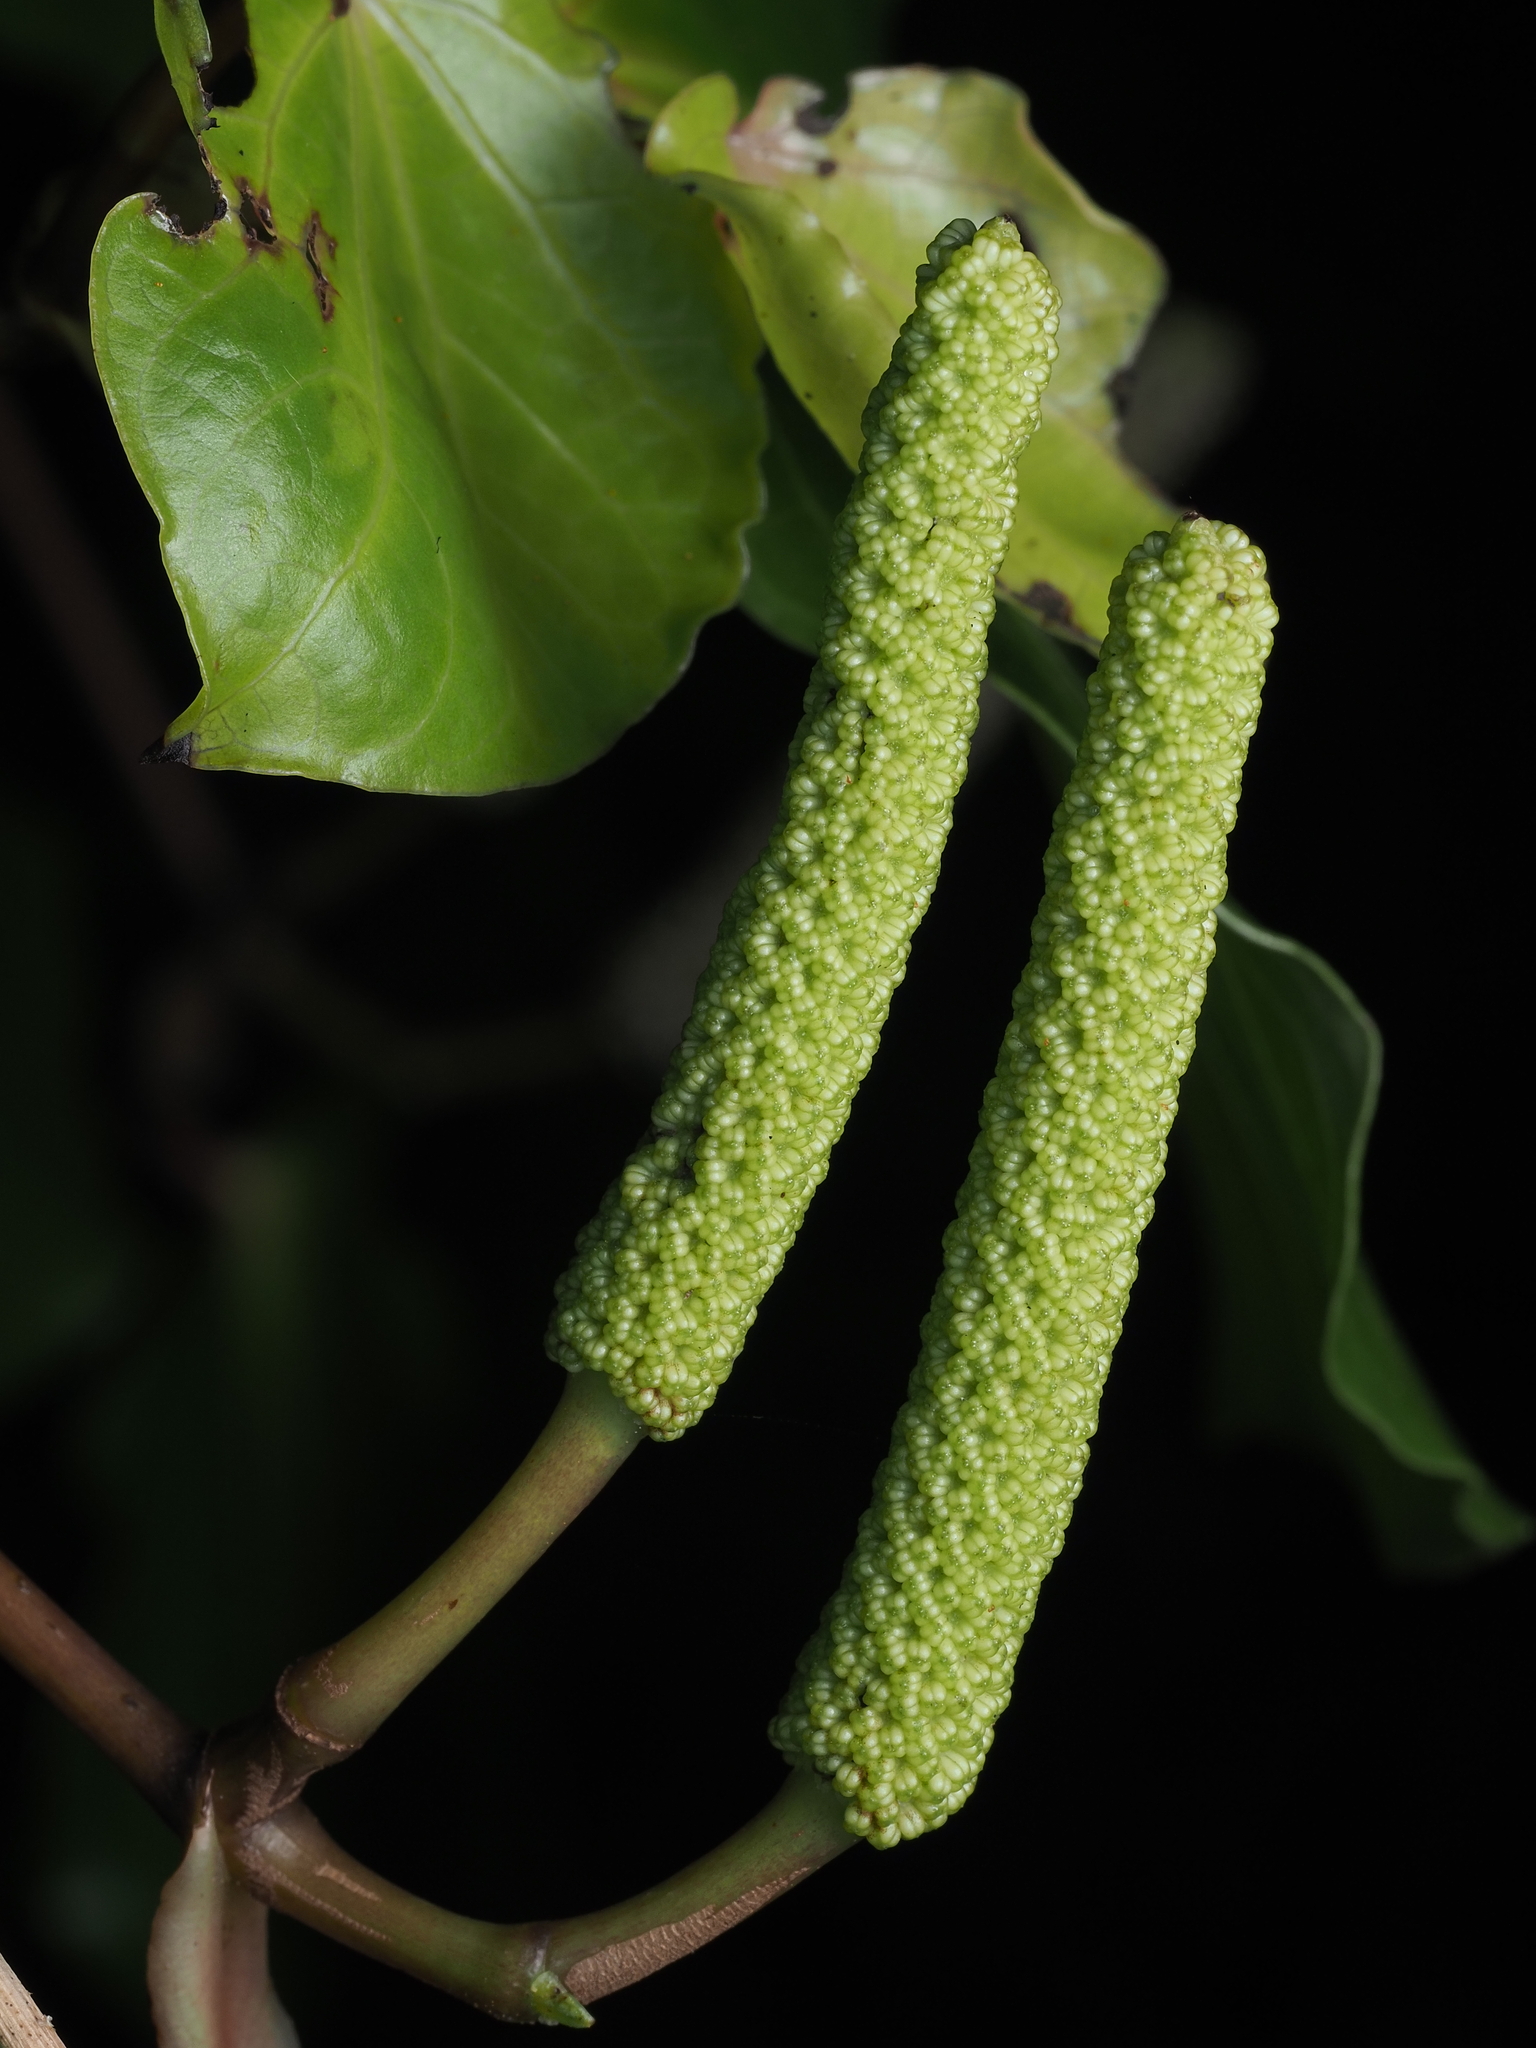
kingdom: Plantae
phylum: Tracheophyta
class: Magnoliopsida
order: Piperales
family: Piperaceae
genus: Macropiper
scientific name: Macropiper excelsum
